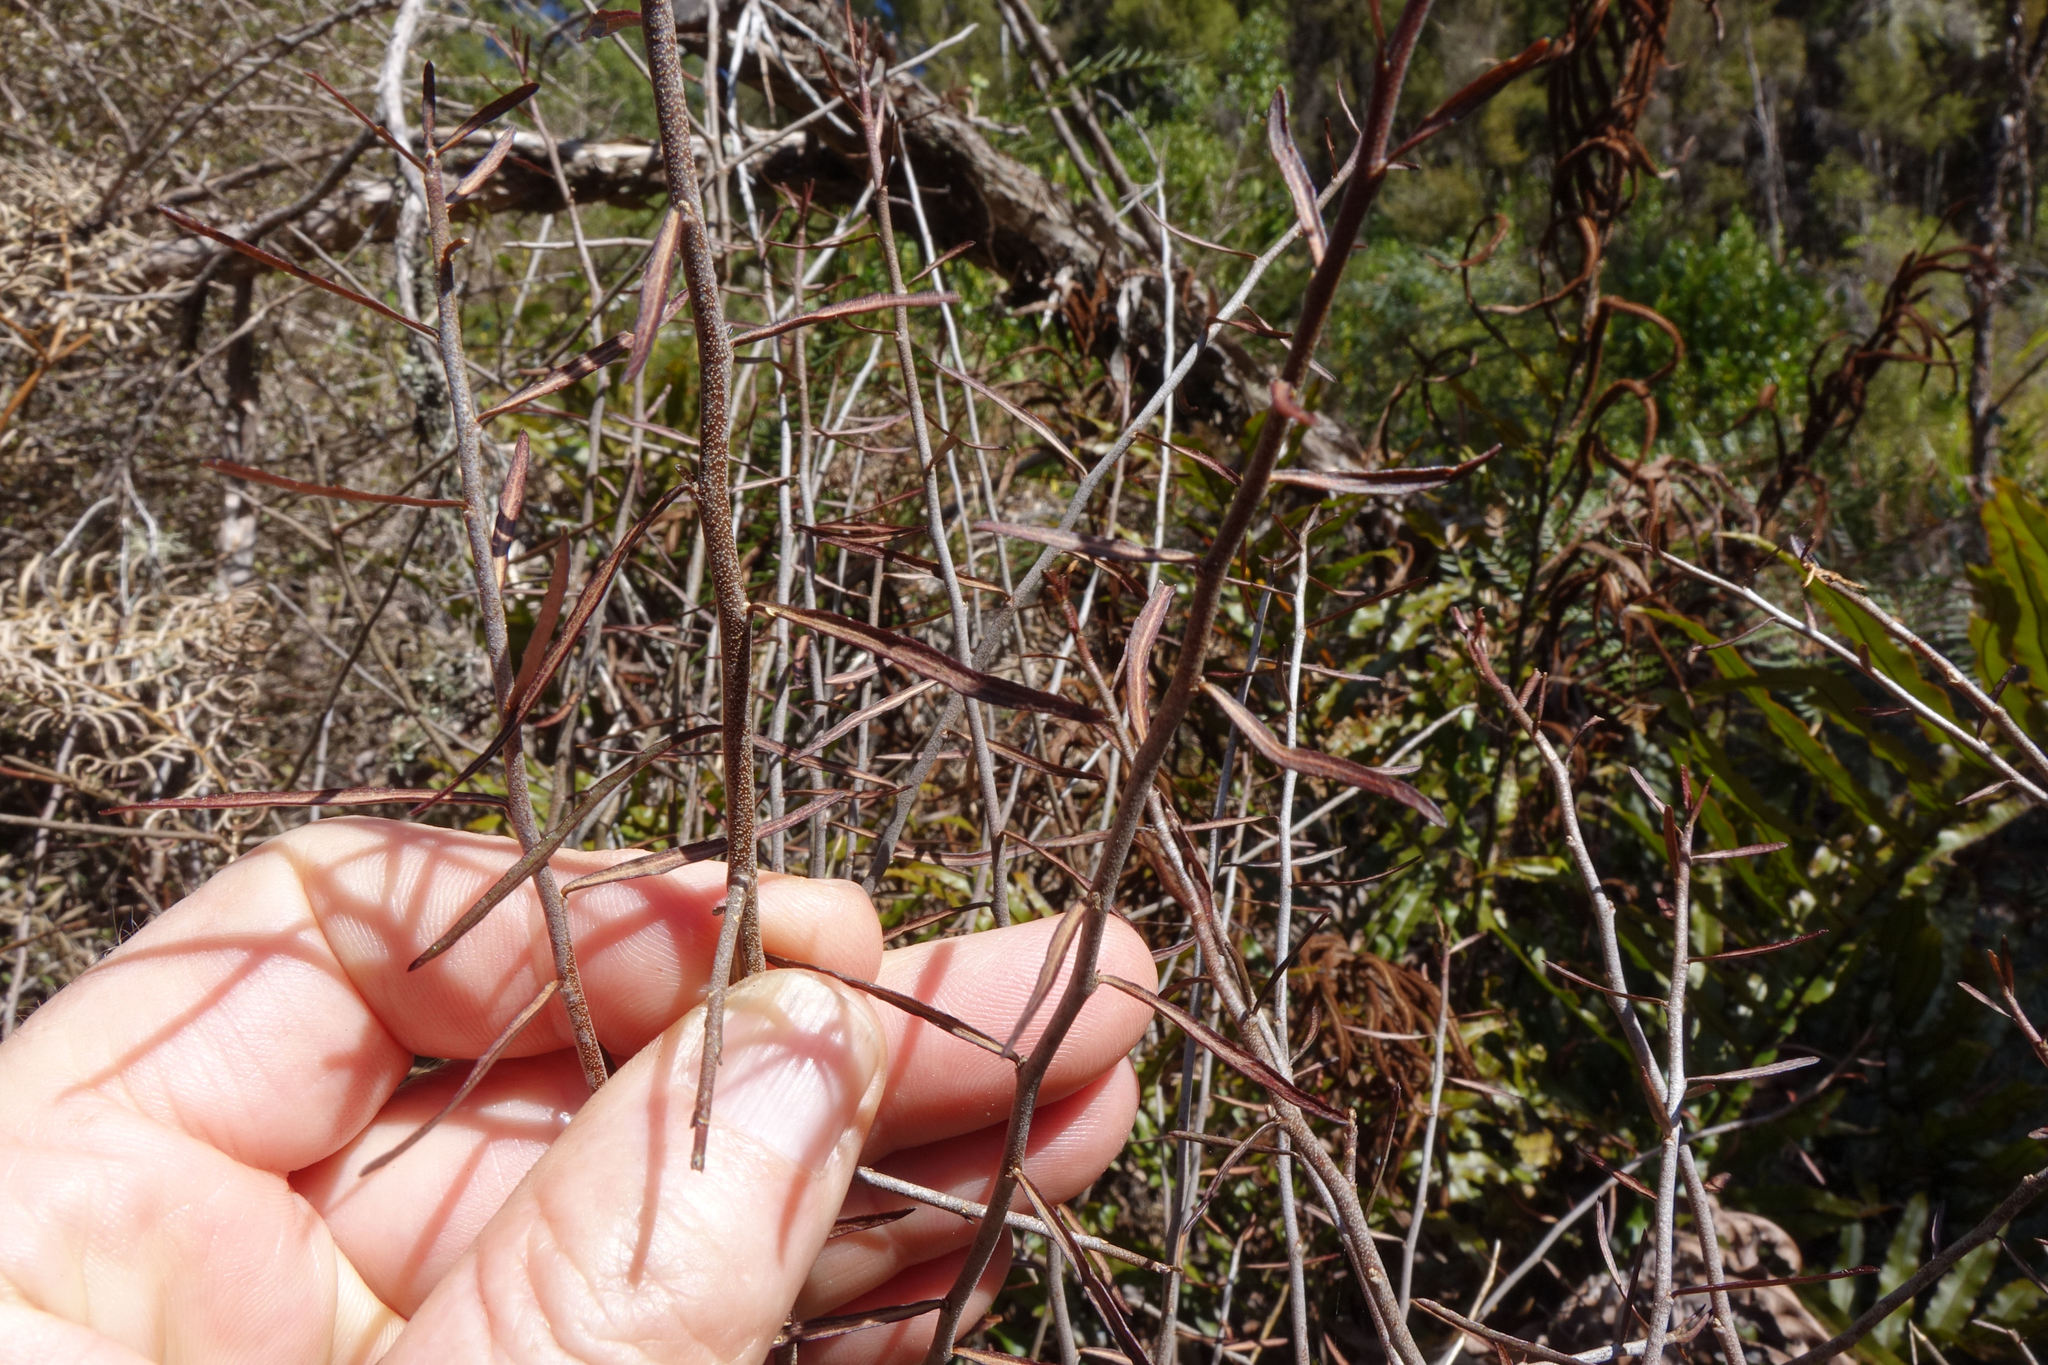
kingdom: Plantae
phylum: Tracheophyta
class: Magnoliopsida
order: Malpighiales
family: Violaceae
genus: Melicytus
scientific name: Melicytus flexuosus
